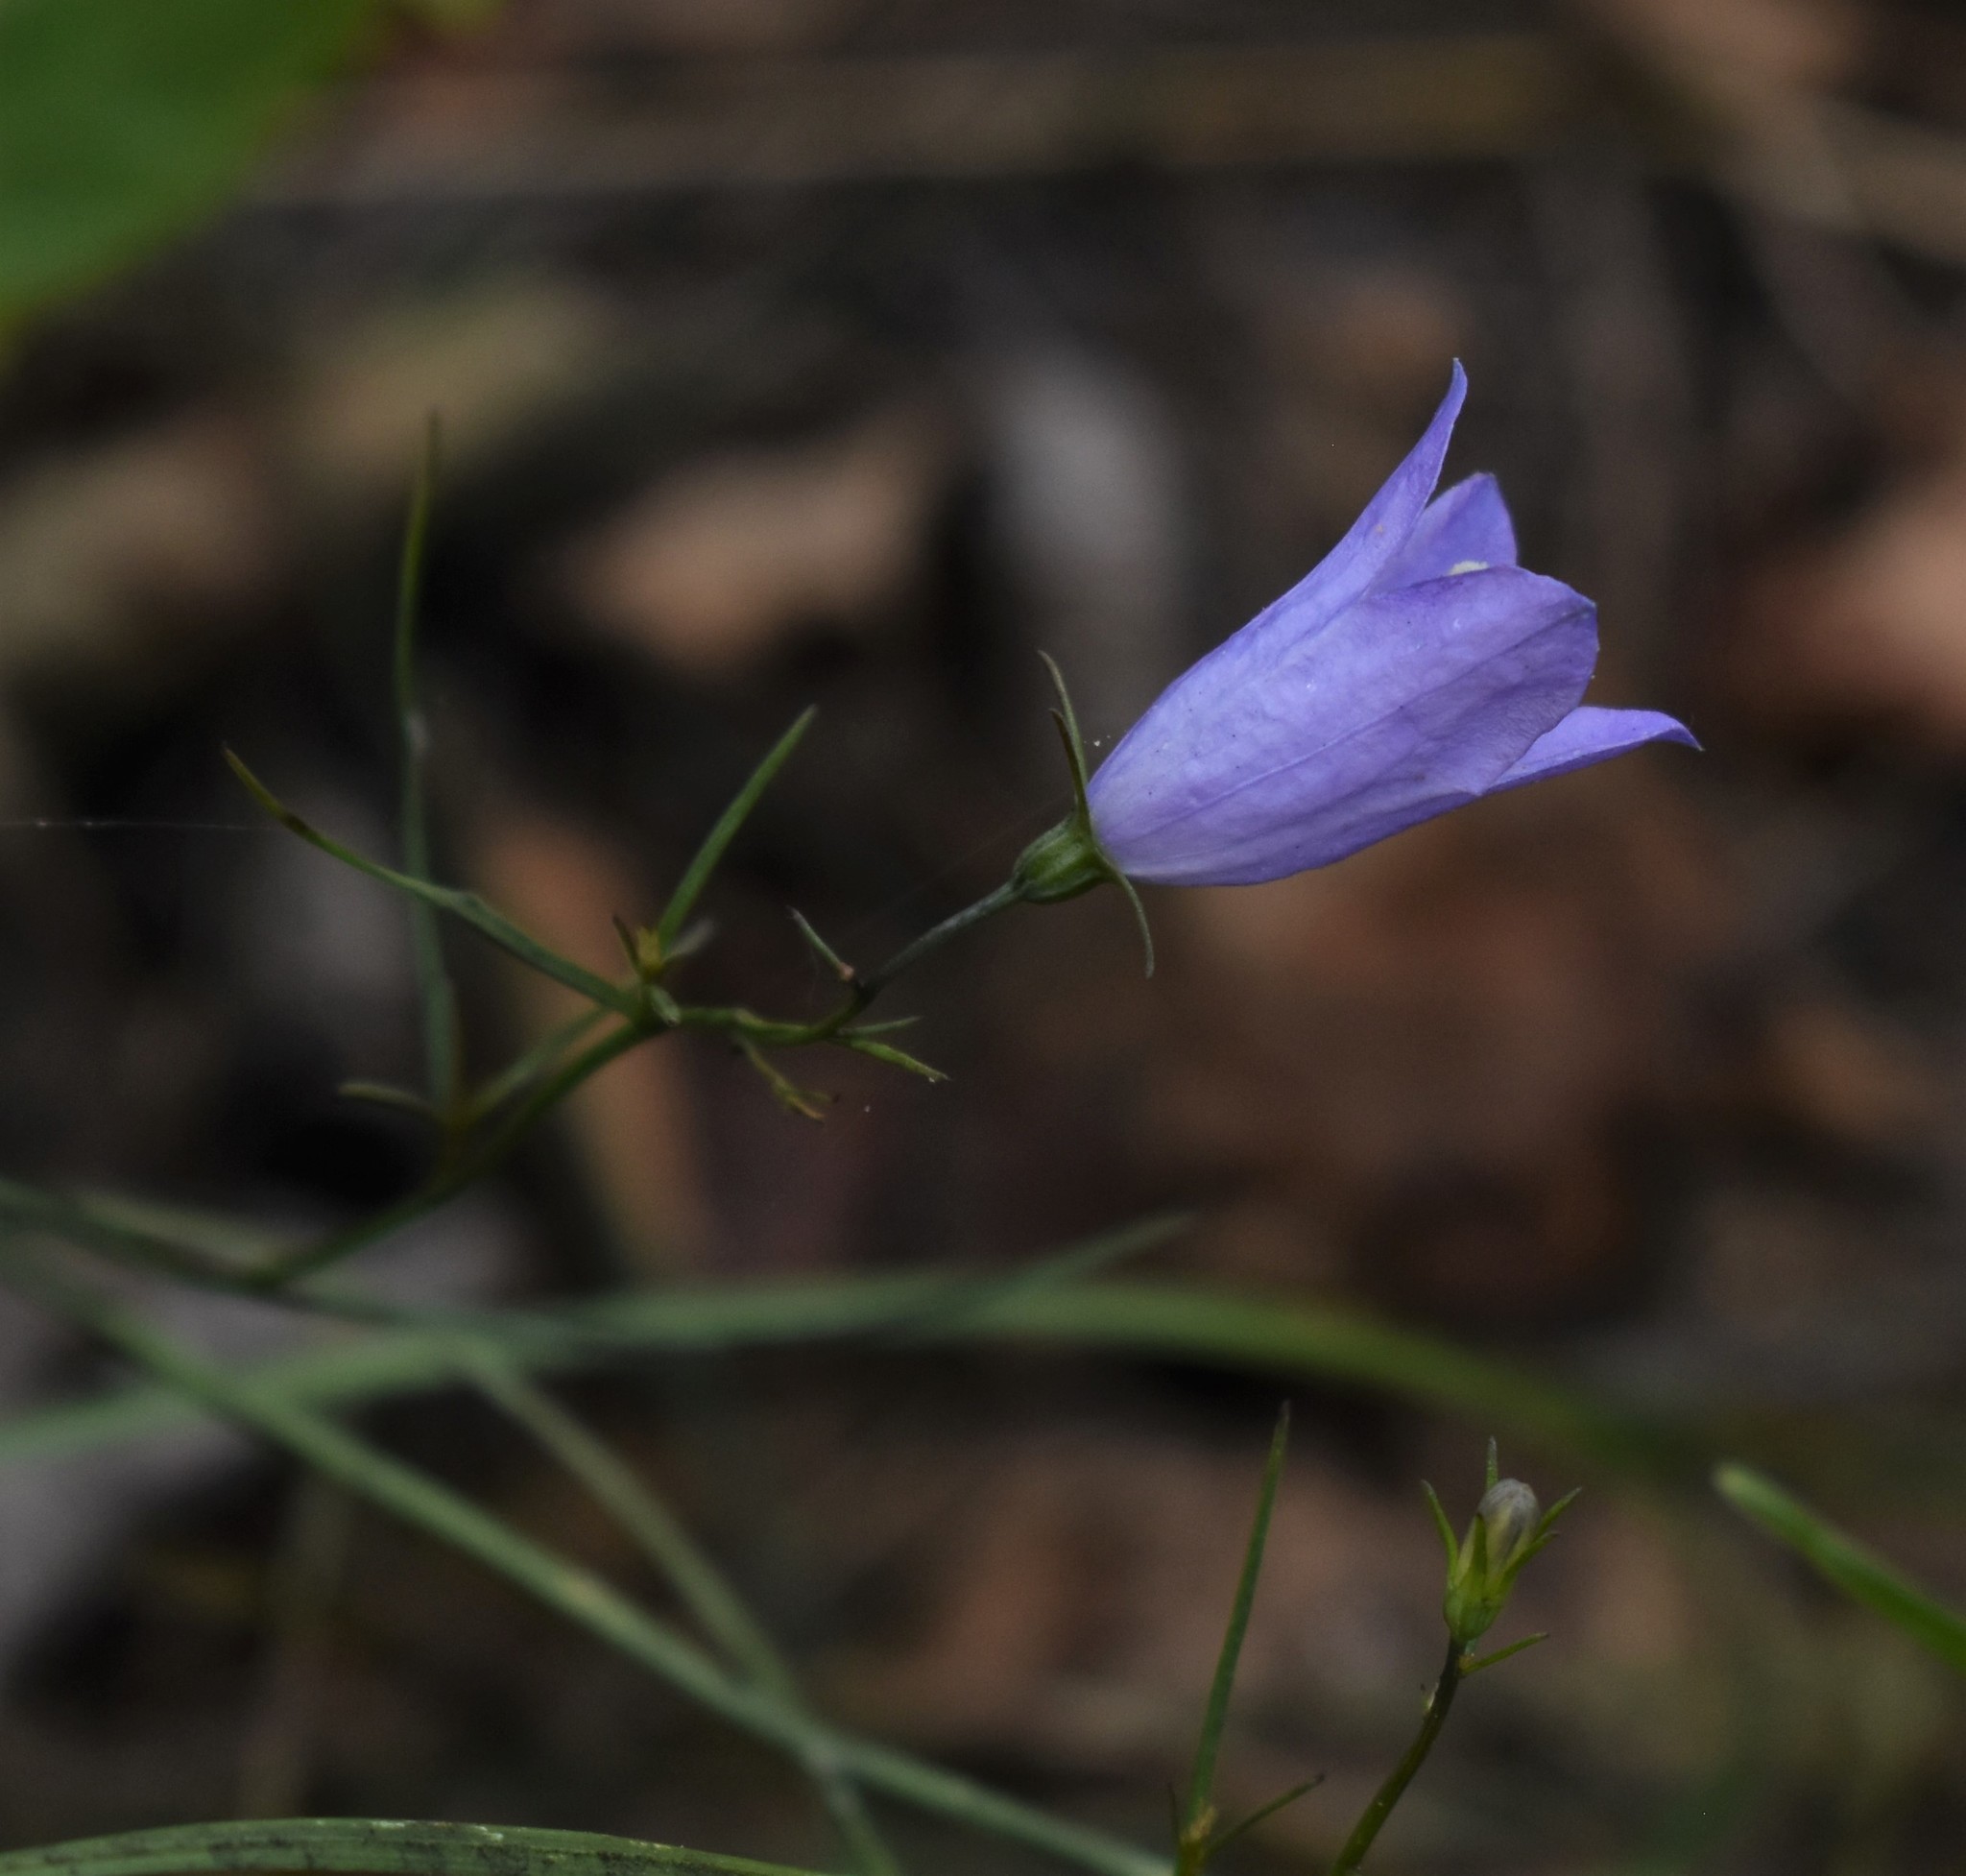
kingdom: Plantae
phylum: Tracheophyta
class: Magnoliopsida
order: Asterales
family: Campanulaceae
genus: Campanula
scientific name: Campanula alaskana
